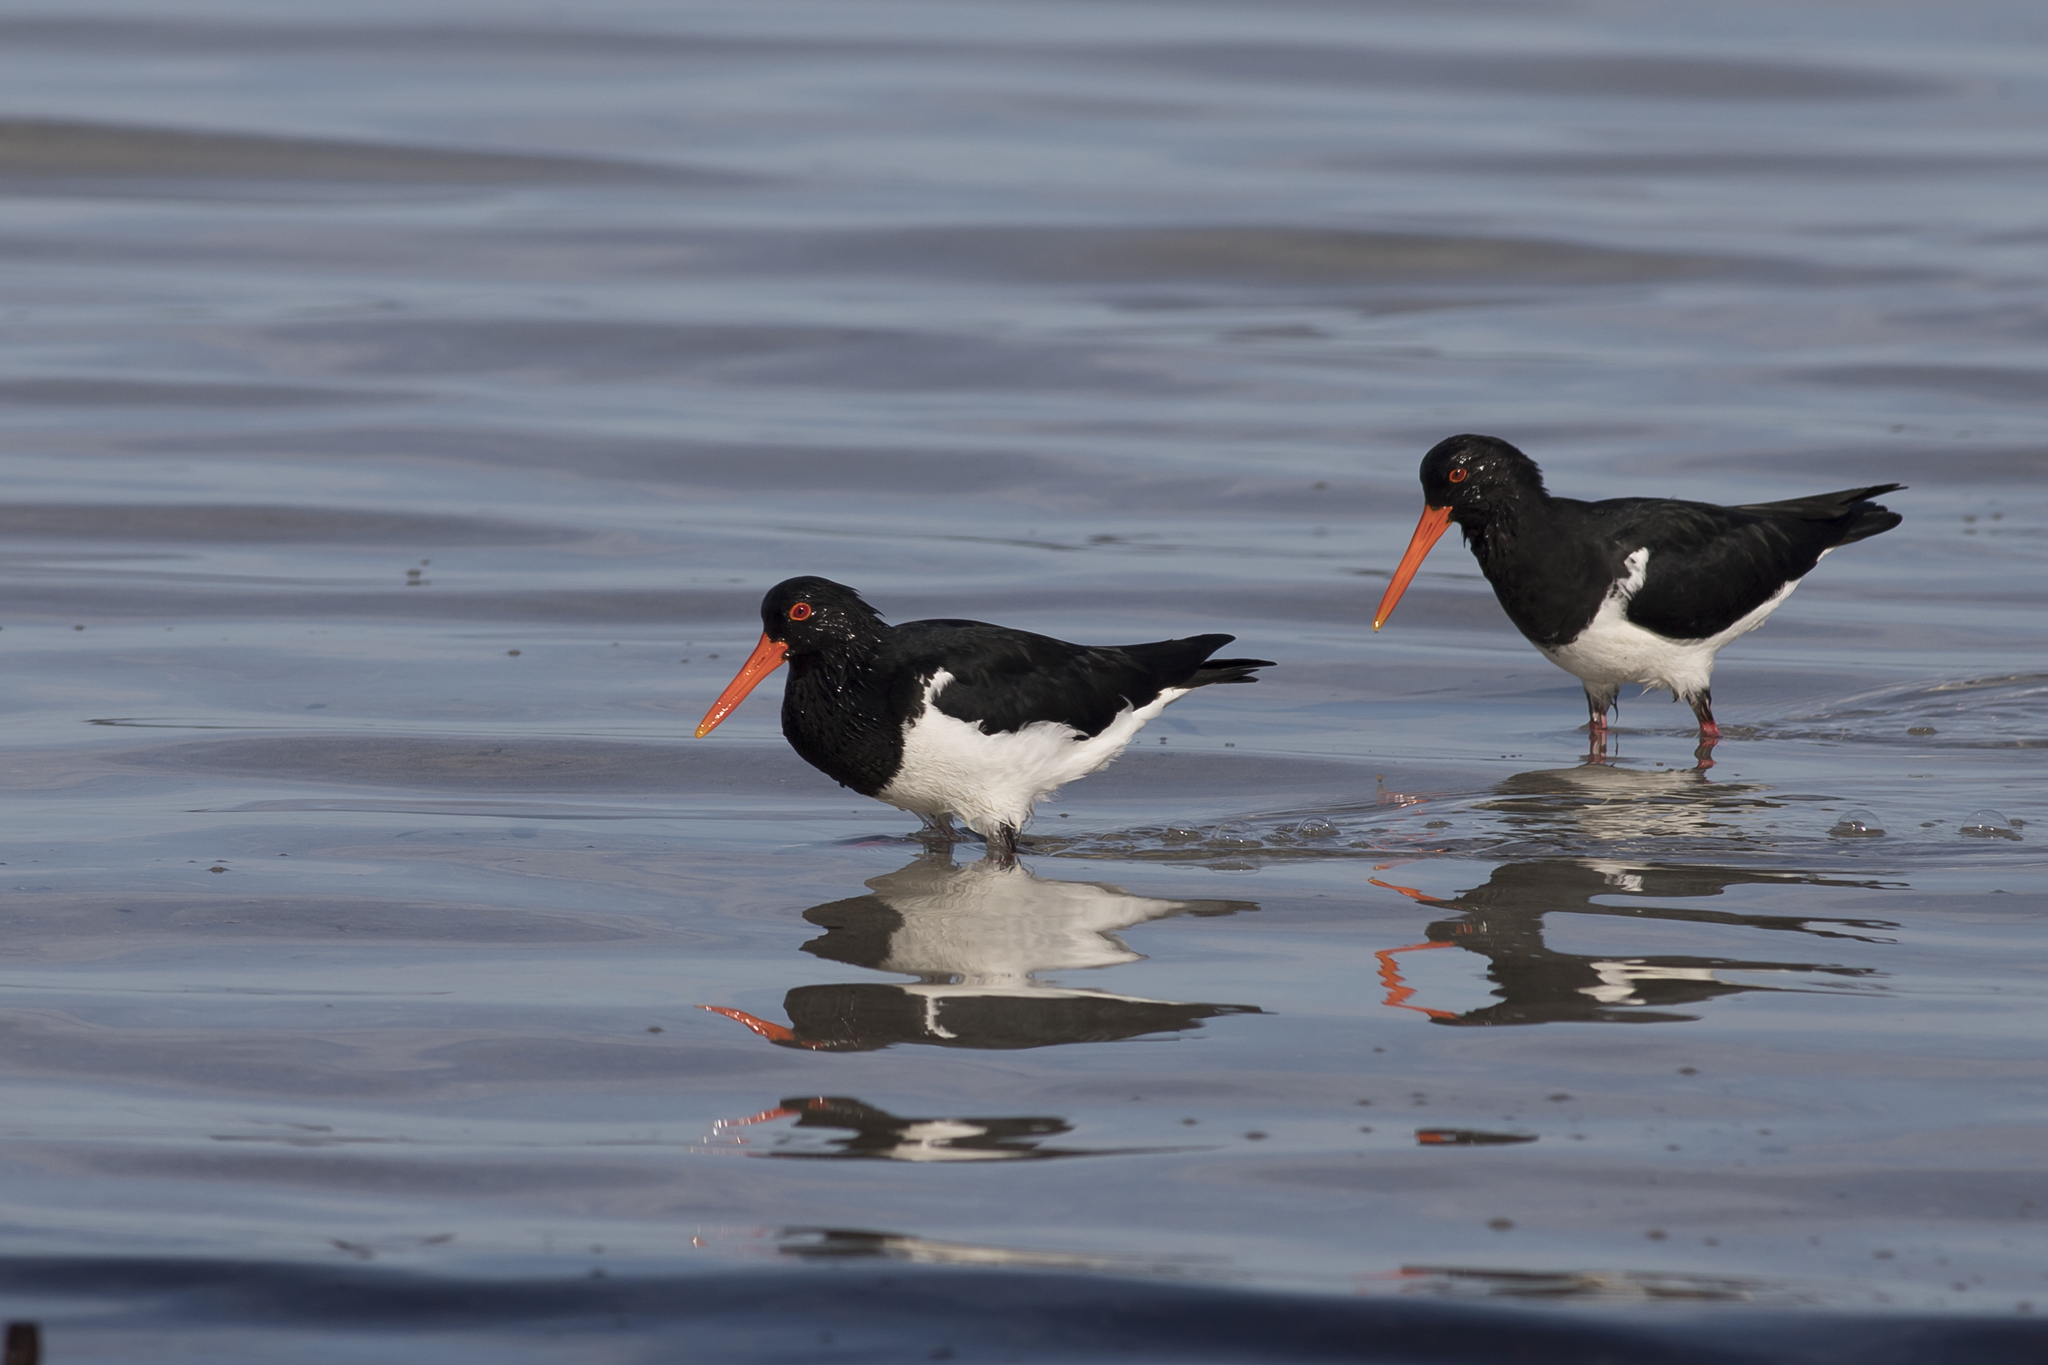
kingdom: Animalia
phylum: Chordata
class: Aves
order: Charadriiformes
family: Haematopodidae
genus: Haematopus
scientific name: Haematopus longirostris
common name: Pied oystercatcher
